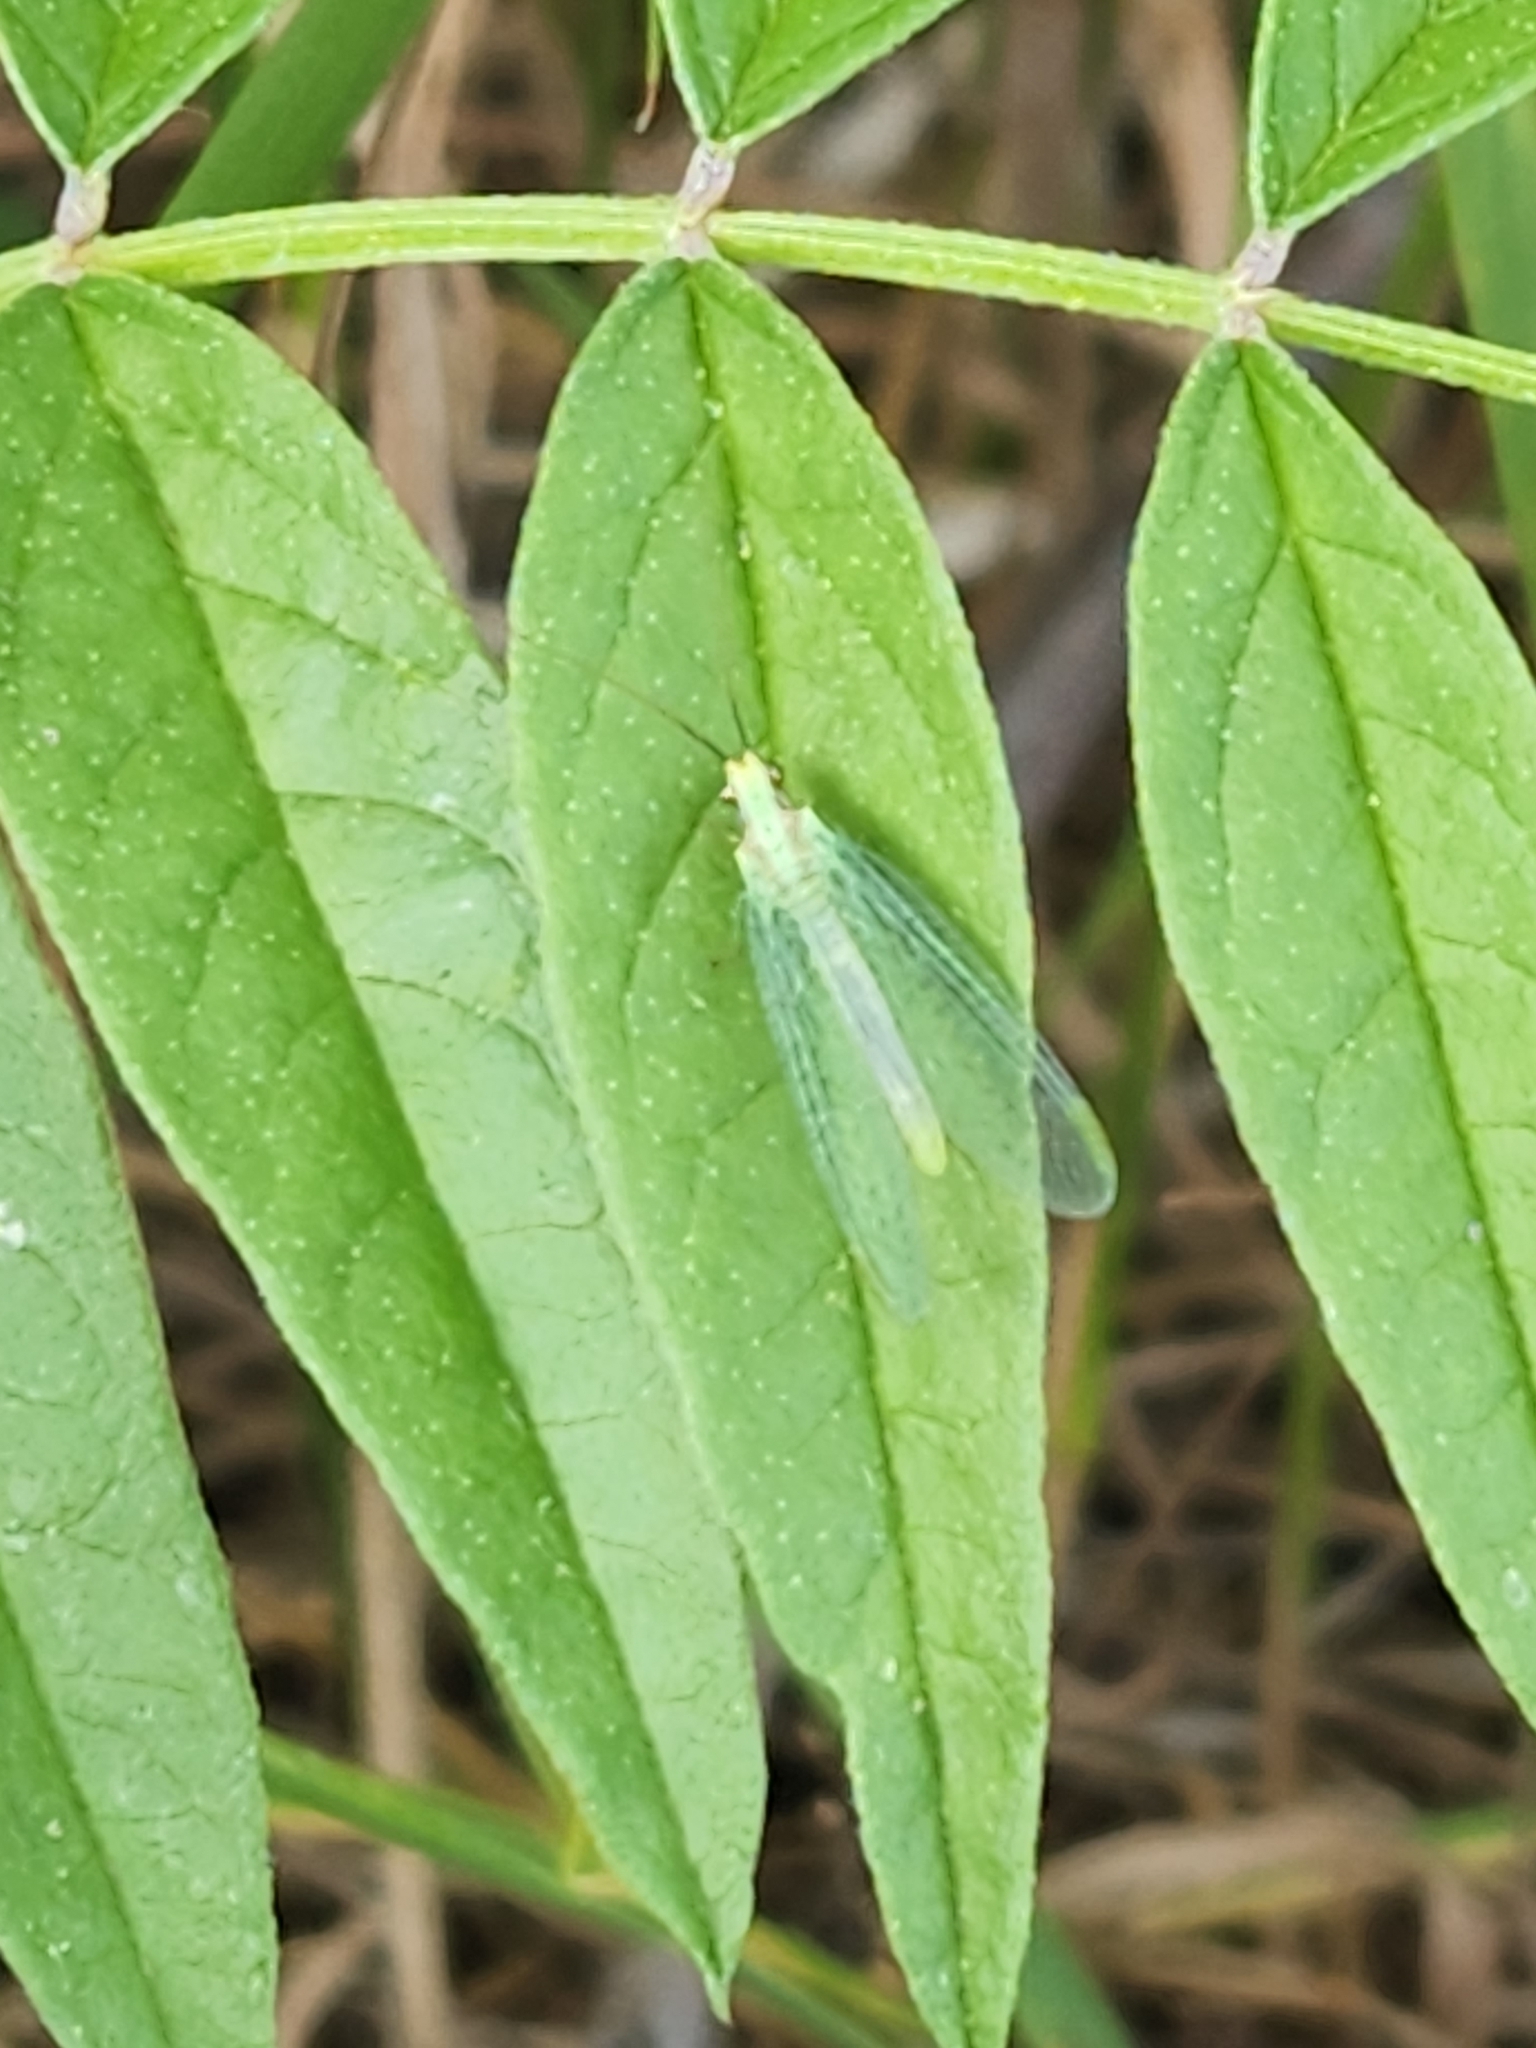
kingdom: Animalia
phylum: Arthropoda
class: Insecta
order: Neuroptera
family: Chrysopidae
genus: Chrysopa
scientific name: Chrysopa coloradensis
